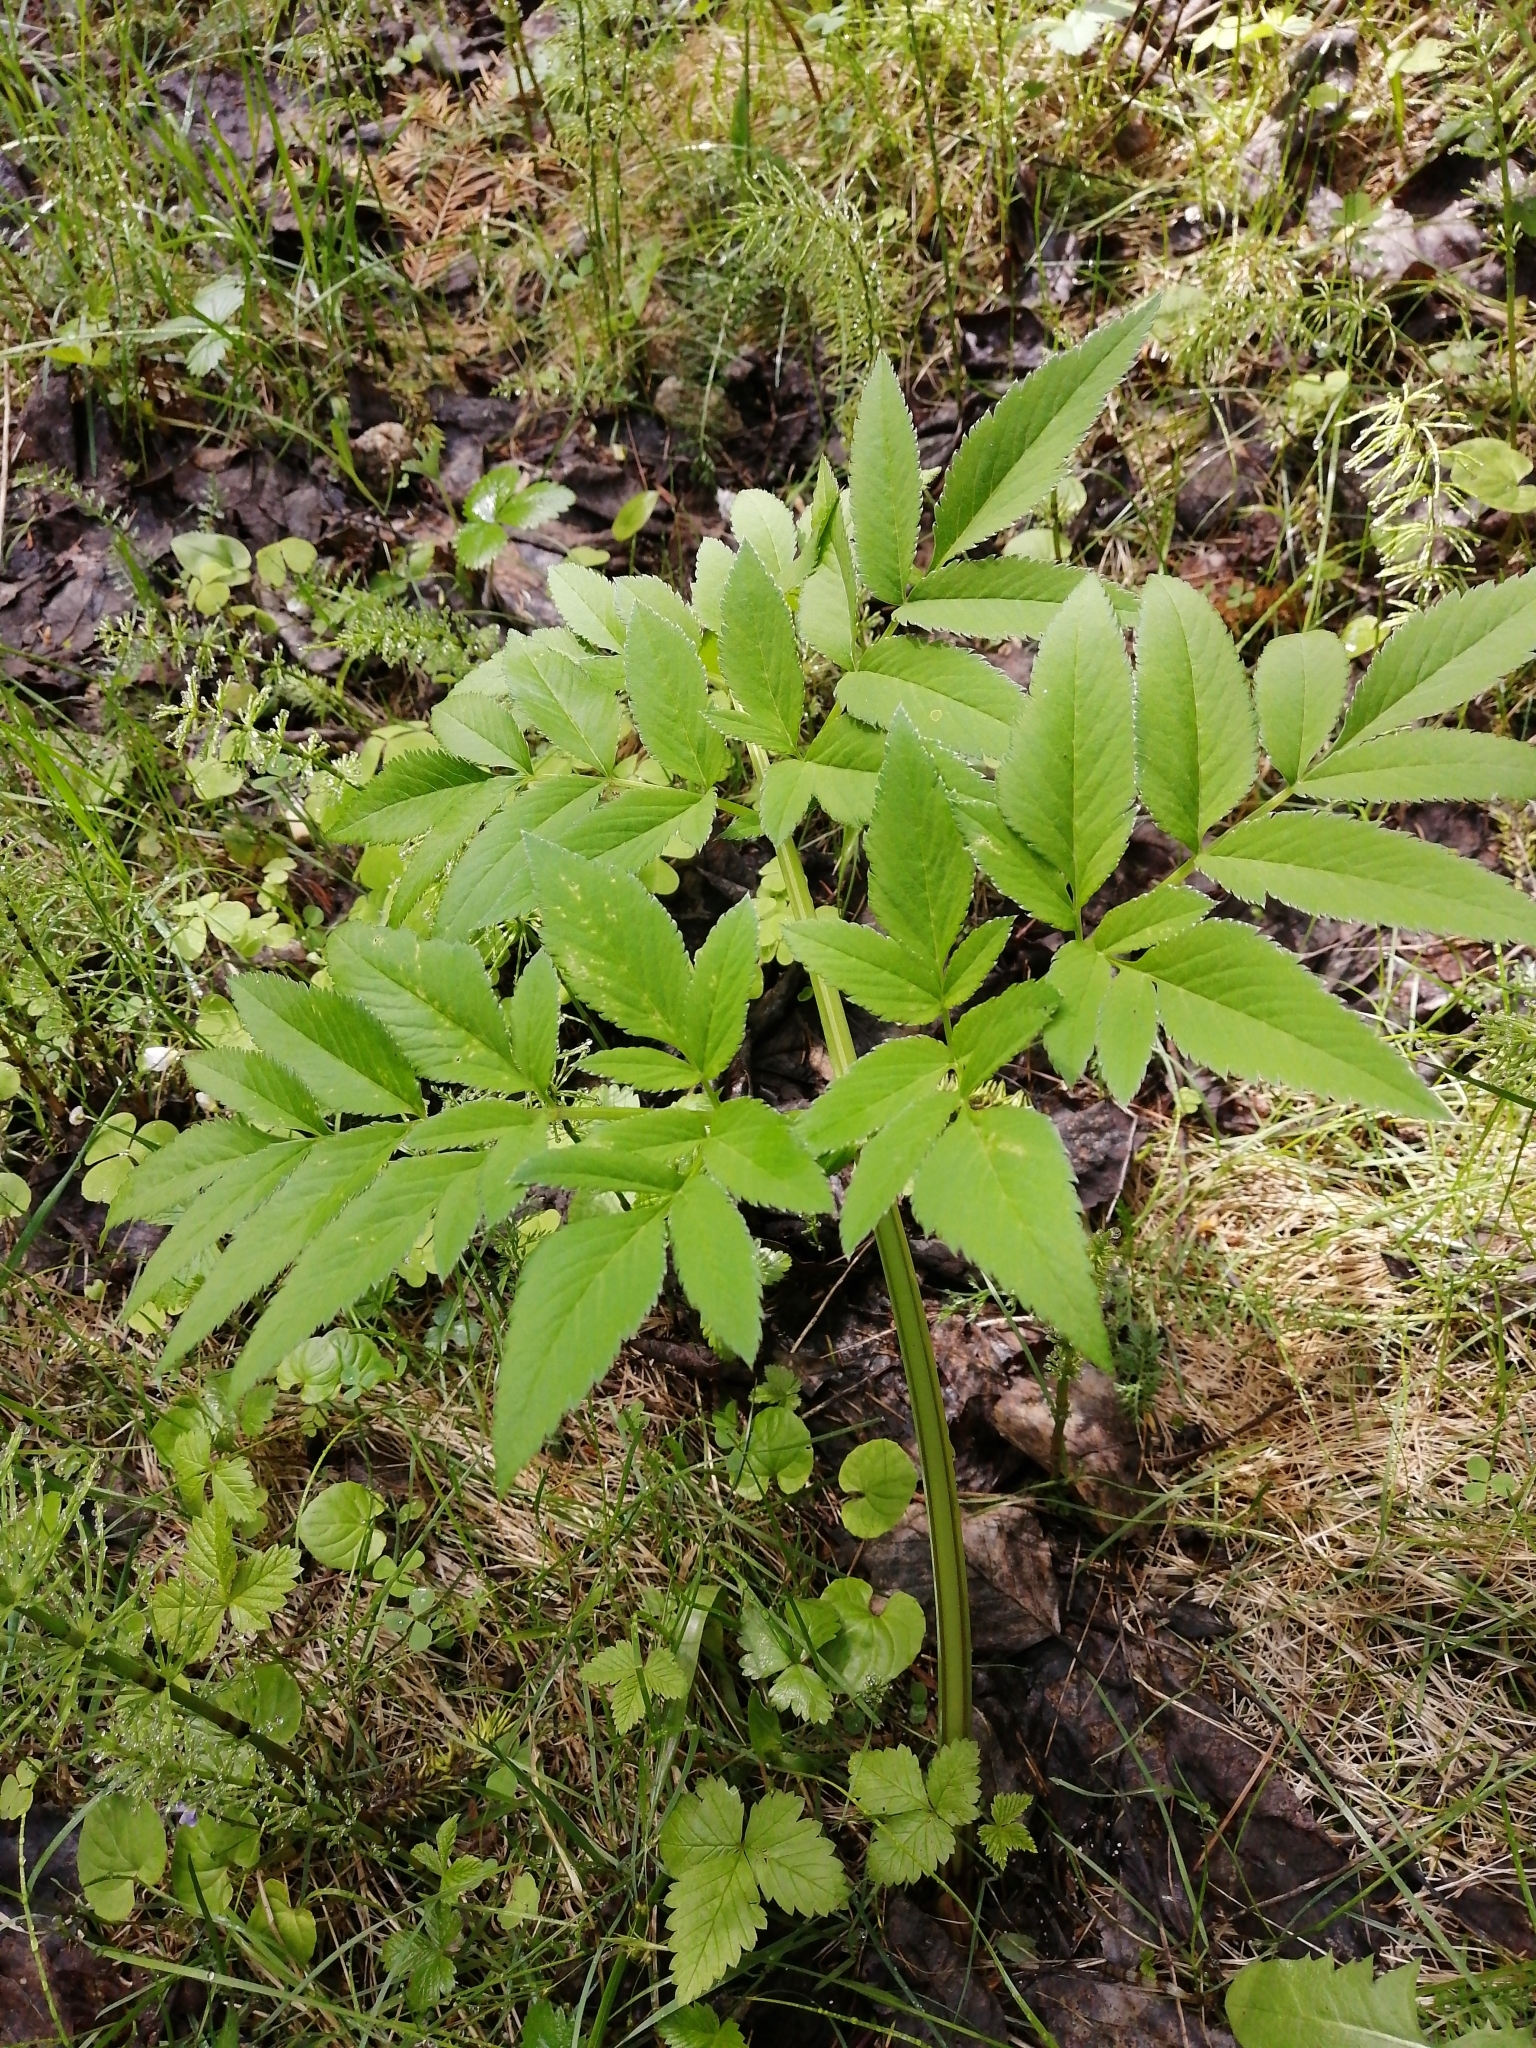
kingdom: Plantae
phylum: Tracheophyta
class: Magnoliopsida
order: Apiales
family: Apiaceae
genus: Angelica
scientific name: Angelica sylvestris
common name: Wild angelica
